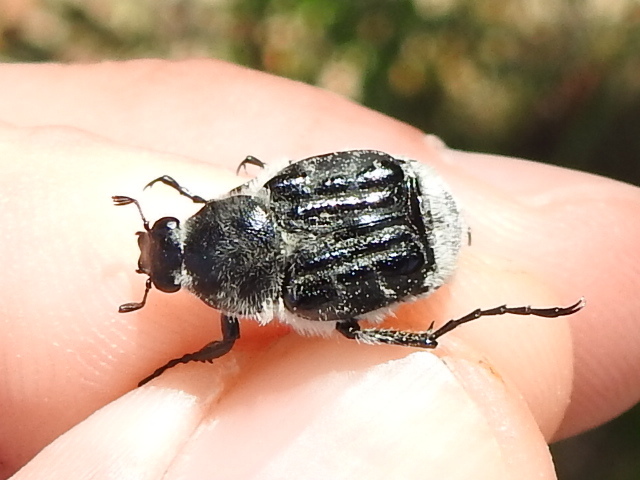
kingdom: Animalia
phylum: Arthropoda
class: Insecta
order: Coleoptera
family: Scarabaeidae
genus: Trichiotinus
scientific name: Trichiotinus texanus
